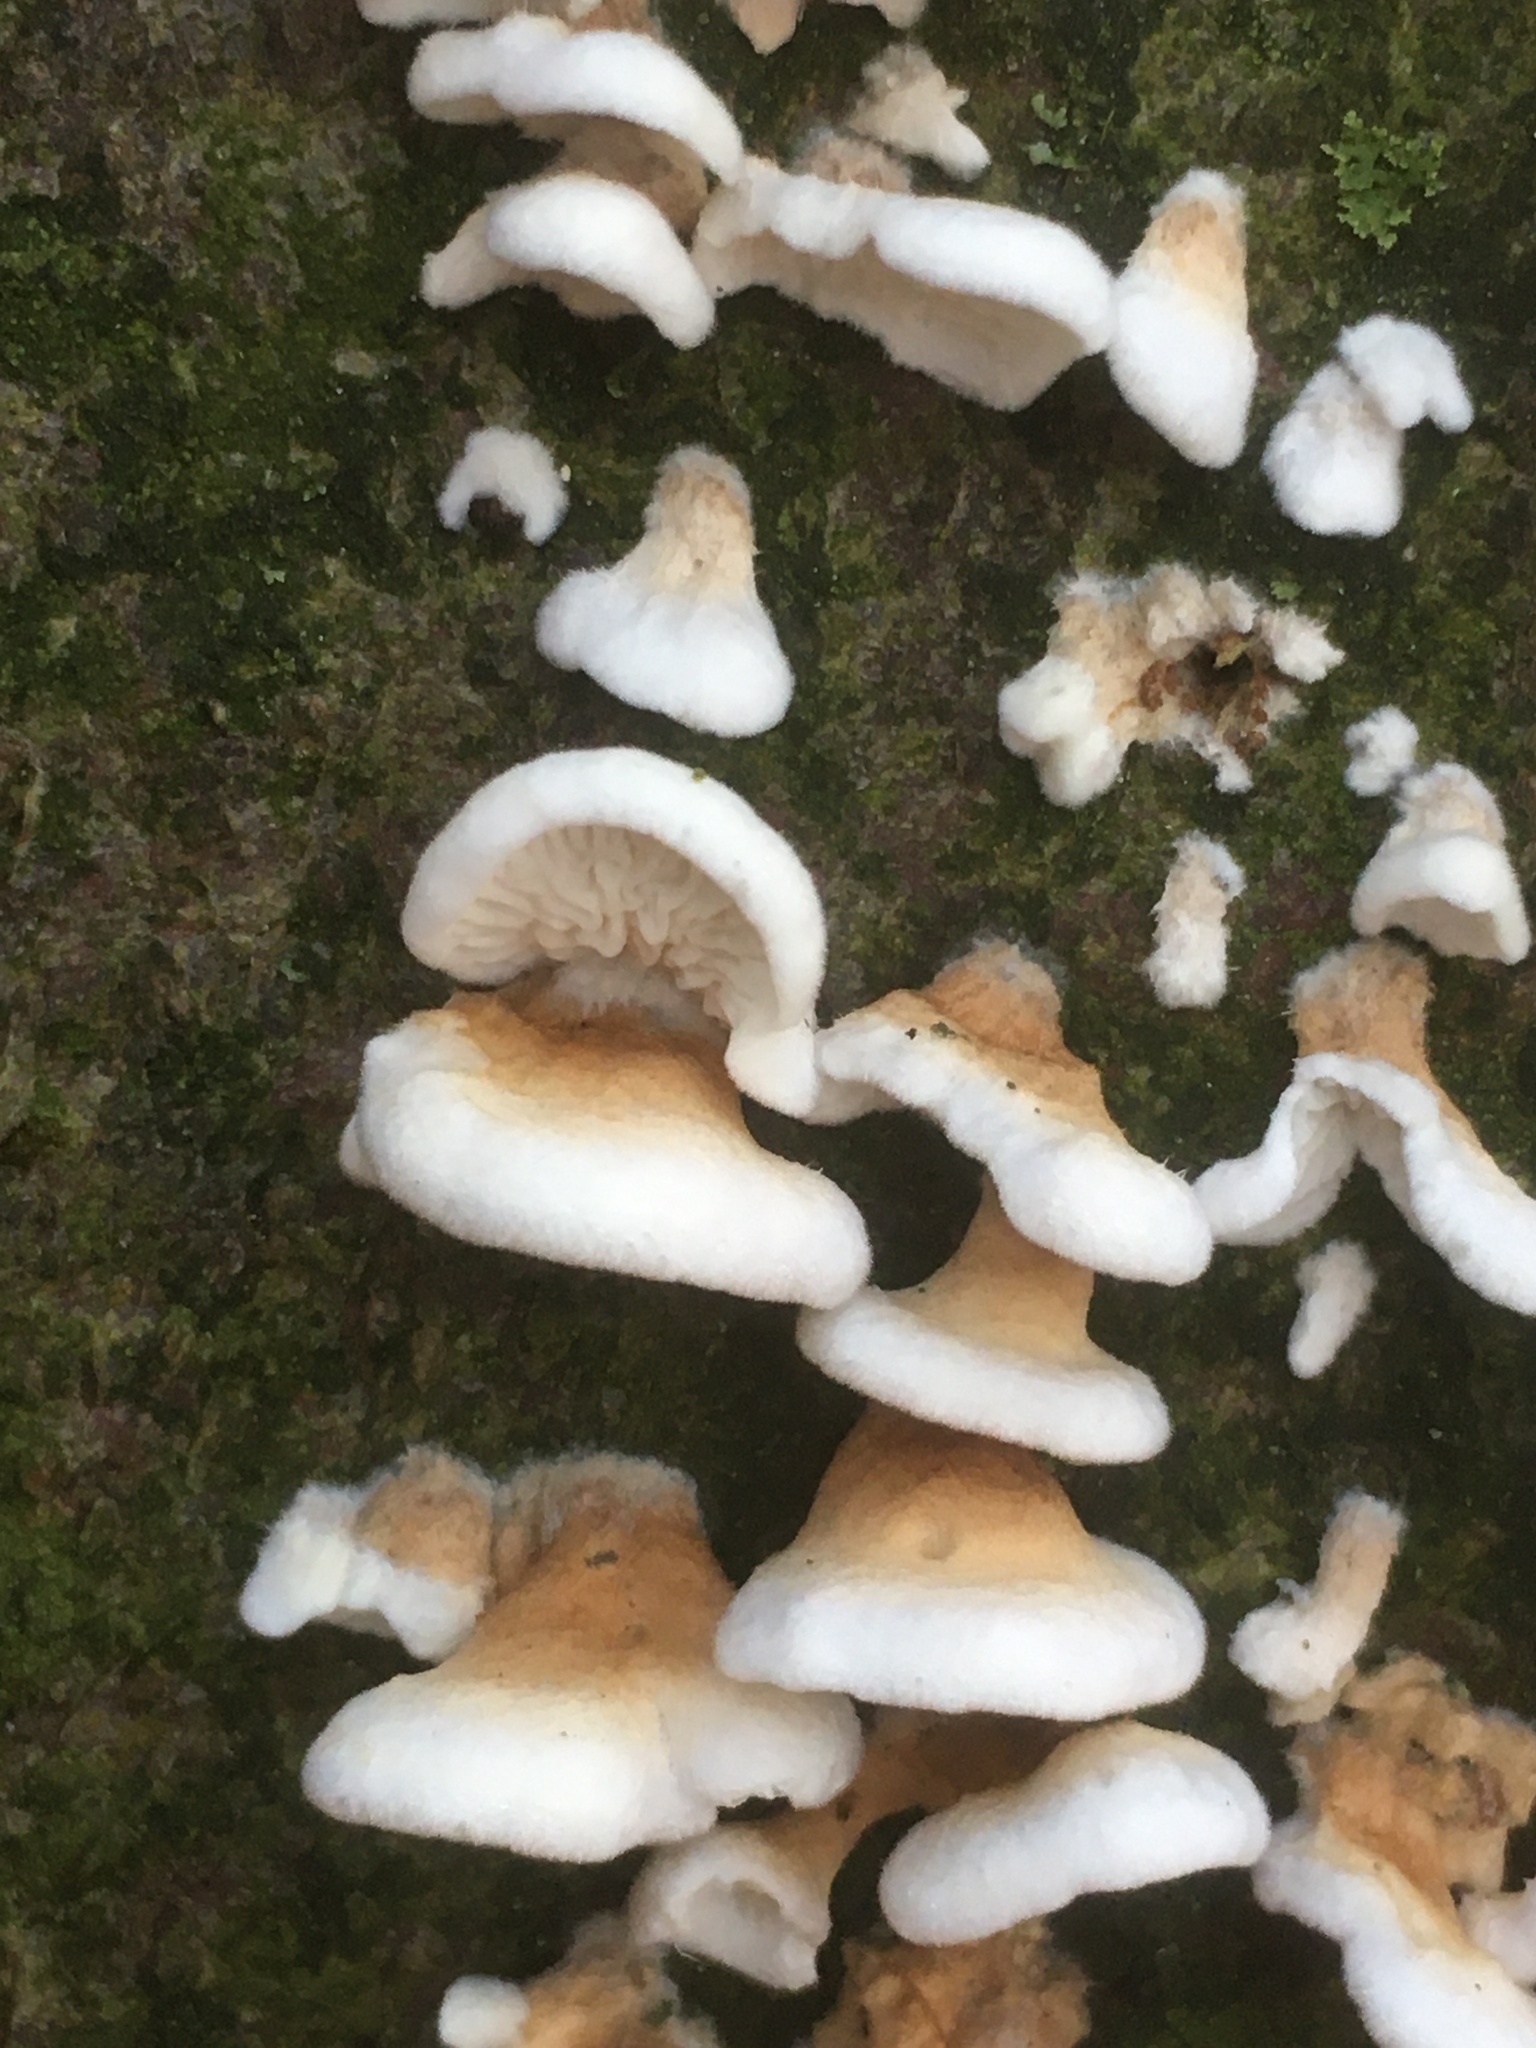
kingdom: Fungi
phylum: Basidiomycota
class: Agaricomycetes
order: Amylocorticiales
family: Amylocorticiaceae
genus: Plicaturopsis
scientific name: Plicaturopsis crispa
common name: Crimped gill
